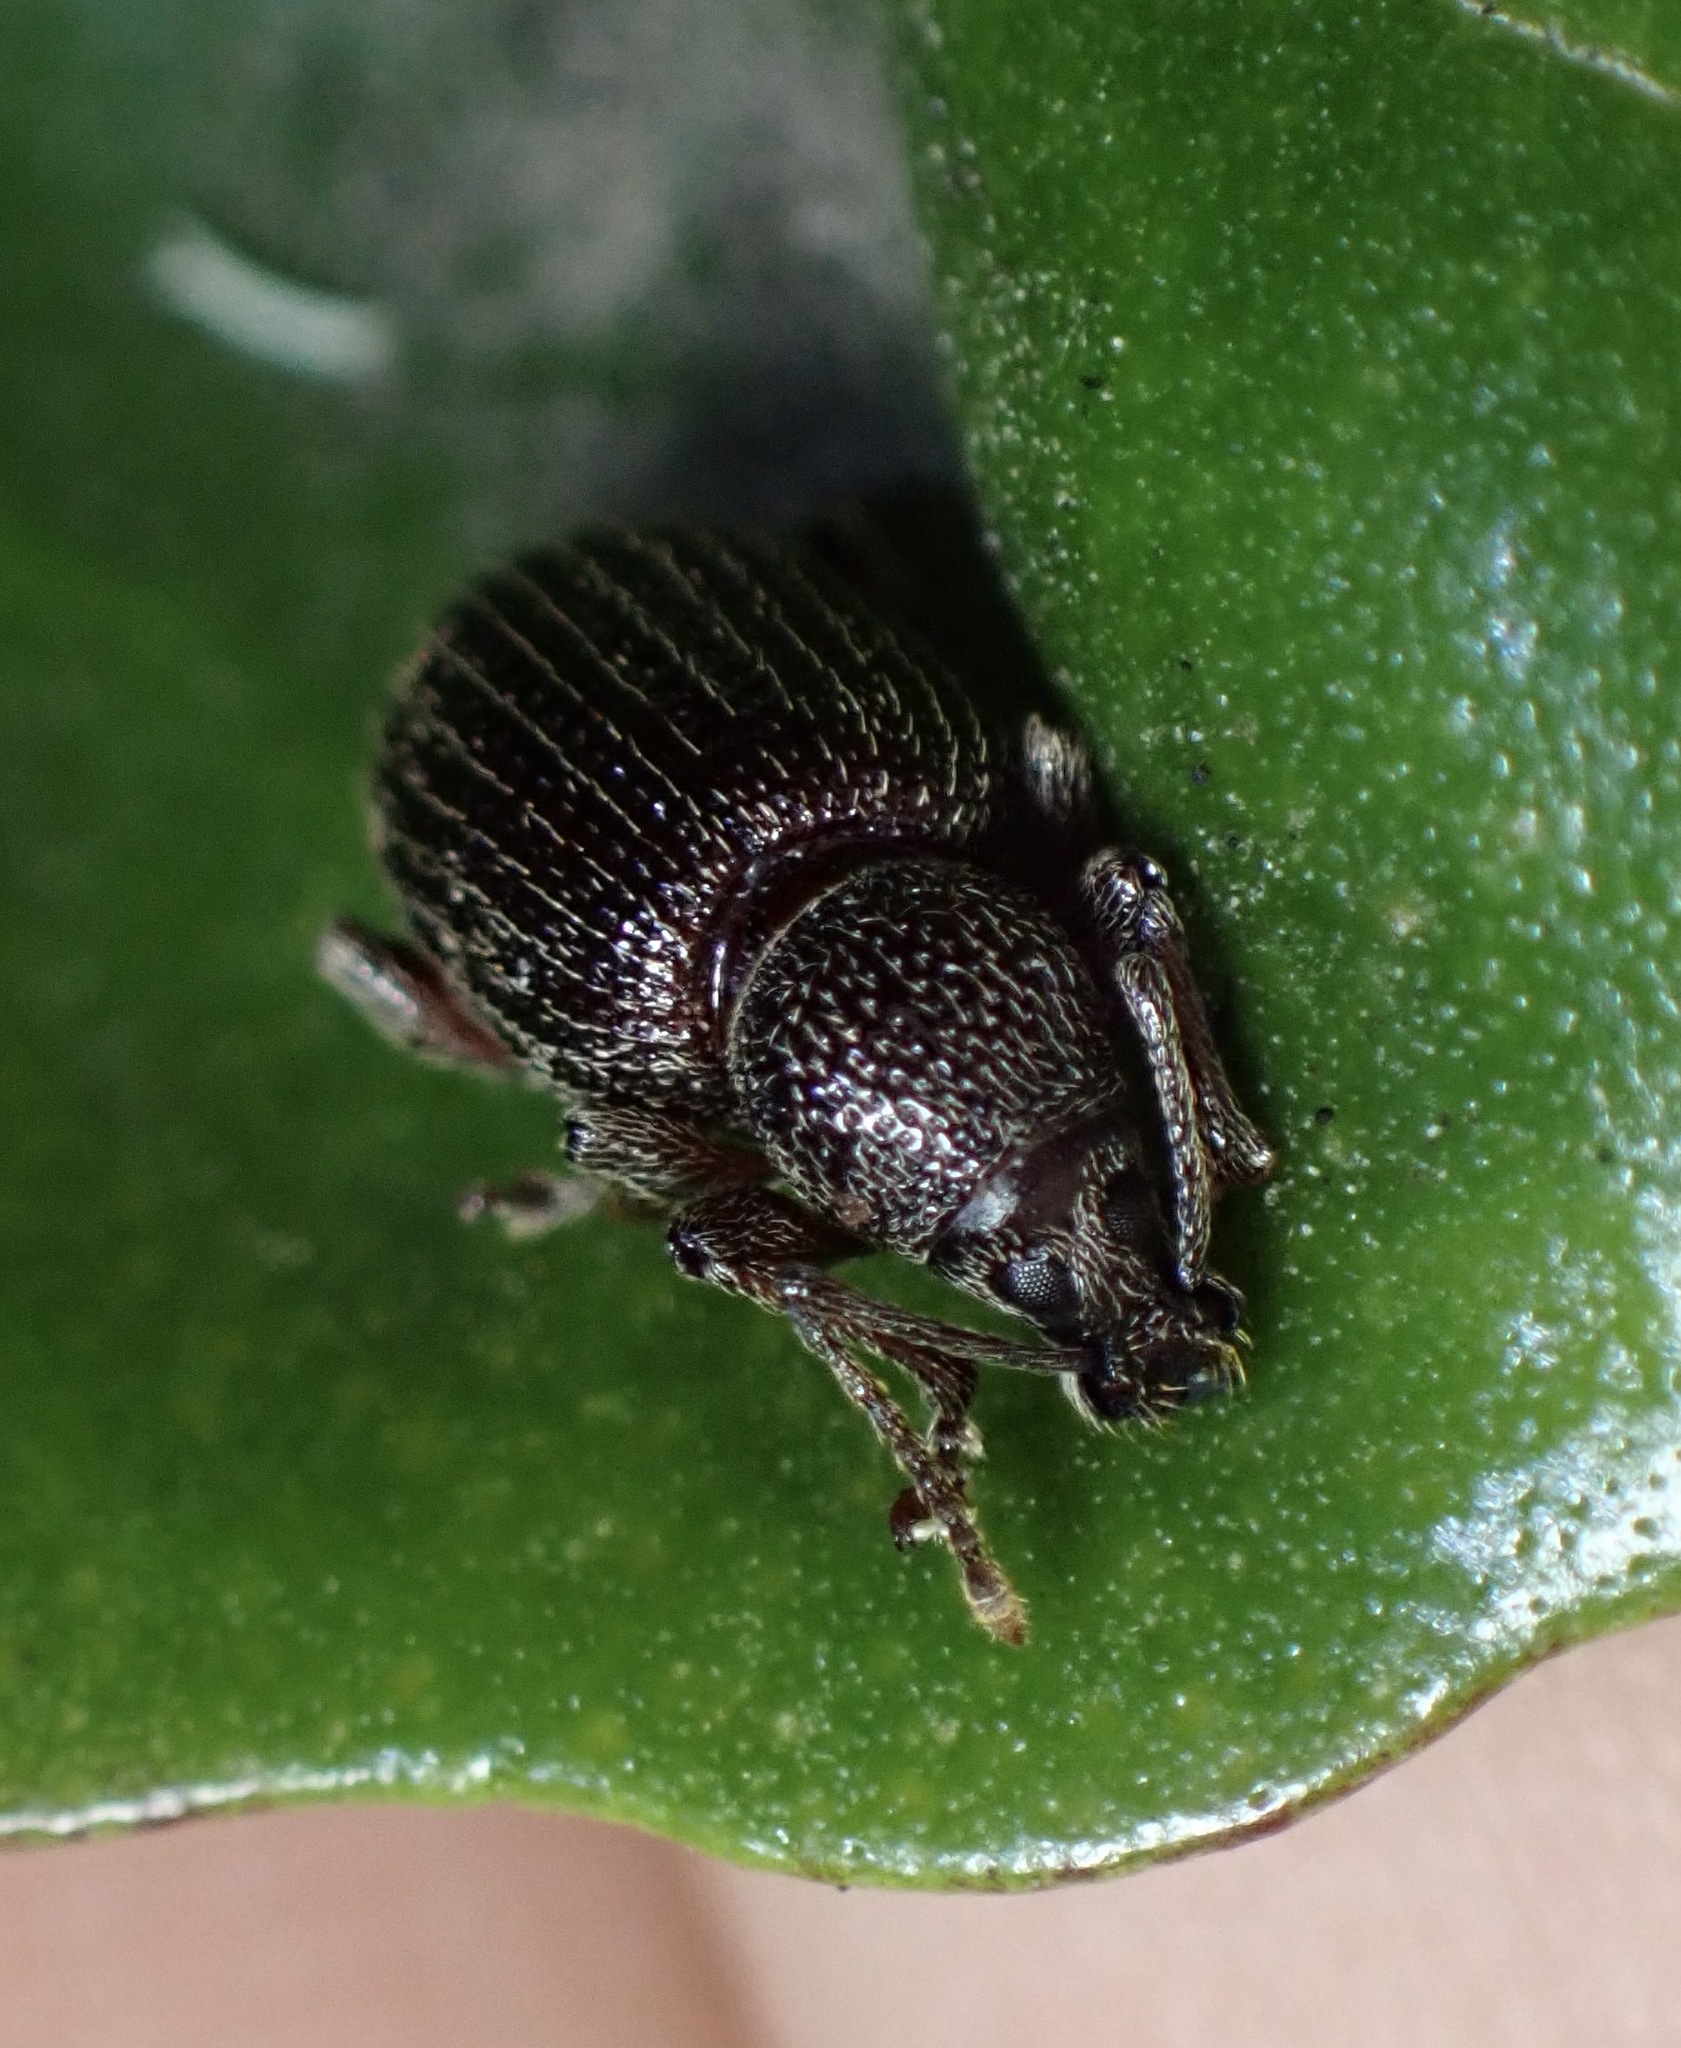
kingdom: Animalia
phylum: Arthropoda
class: Insecta
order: Coleoptera
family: Curculionidae
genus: Otiorhynchus
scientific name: Otiorhynchus cribricollis
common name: Weevil
